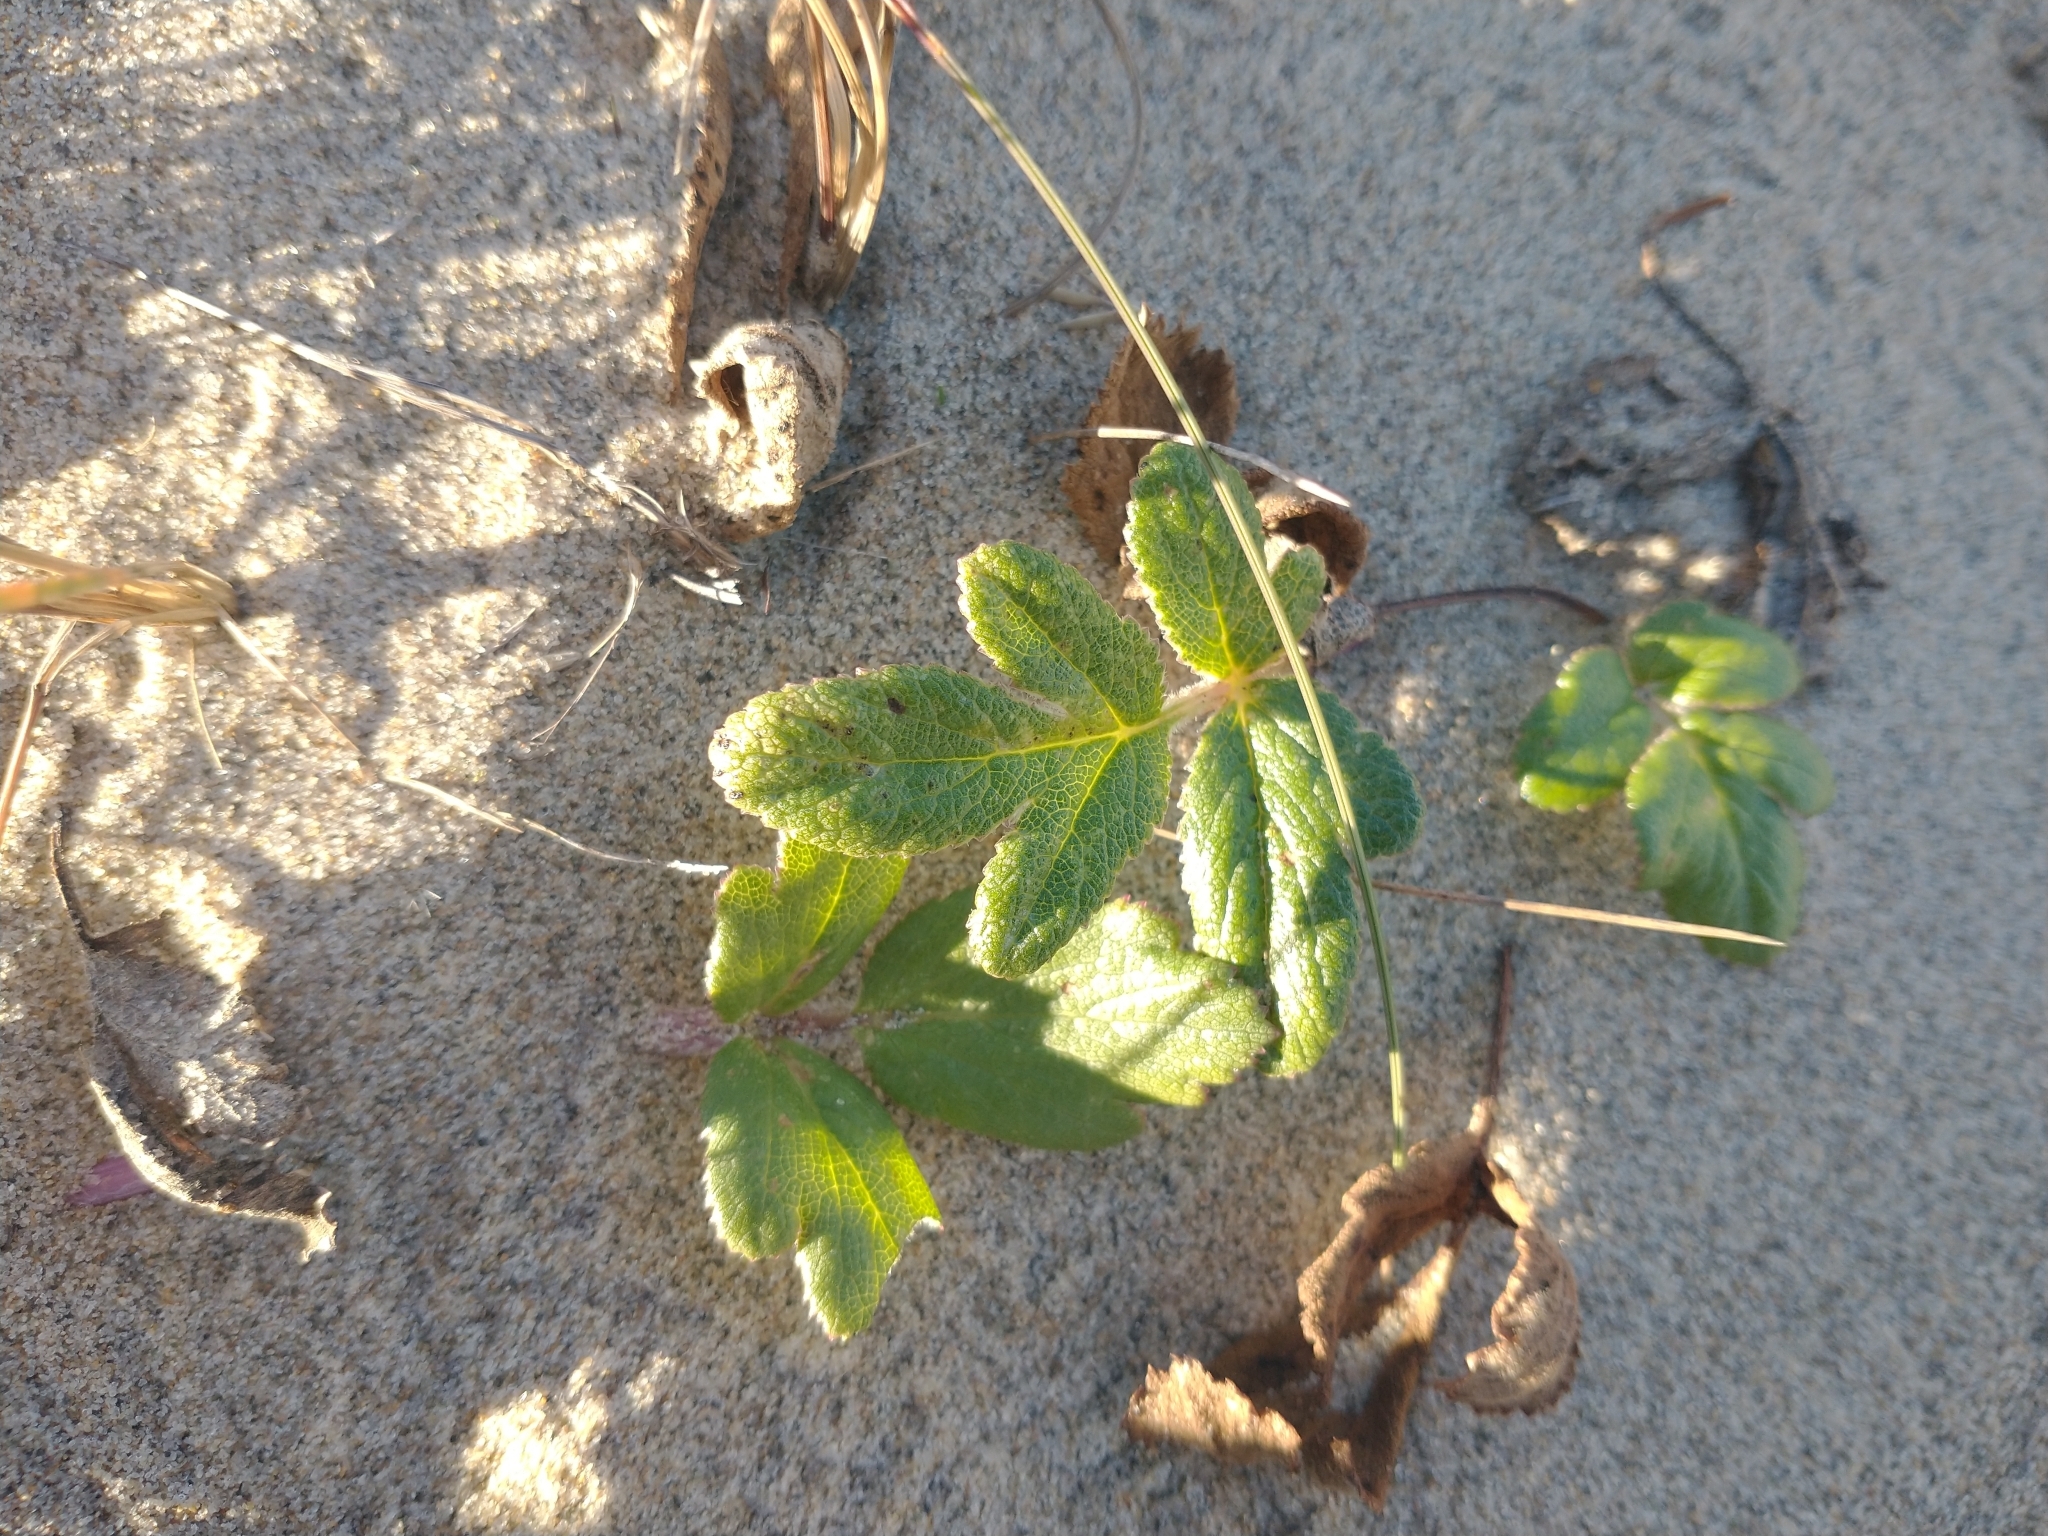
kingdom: Plantae
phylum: Tracheophyta
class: Magnoliopsida
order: Apiales
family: Apiaceae
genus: Glehnia
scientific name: Glehnia littoralis
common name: Beach silvertop
